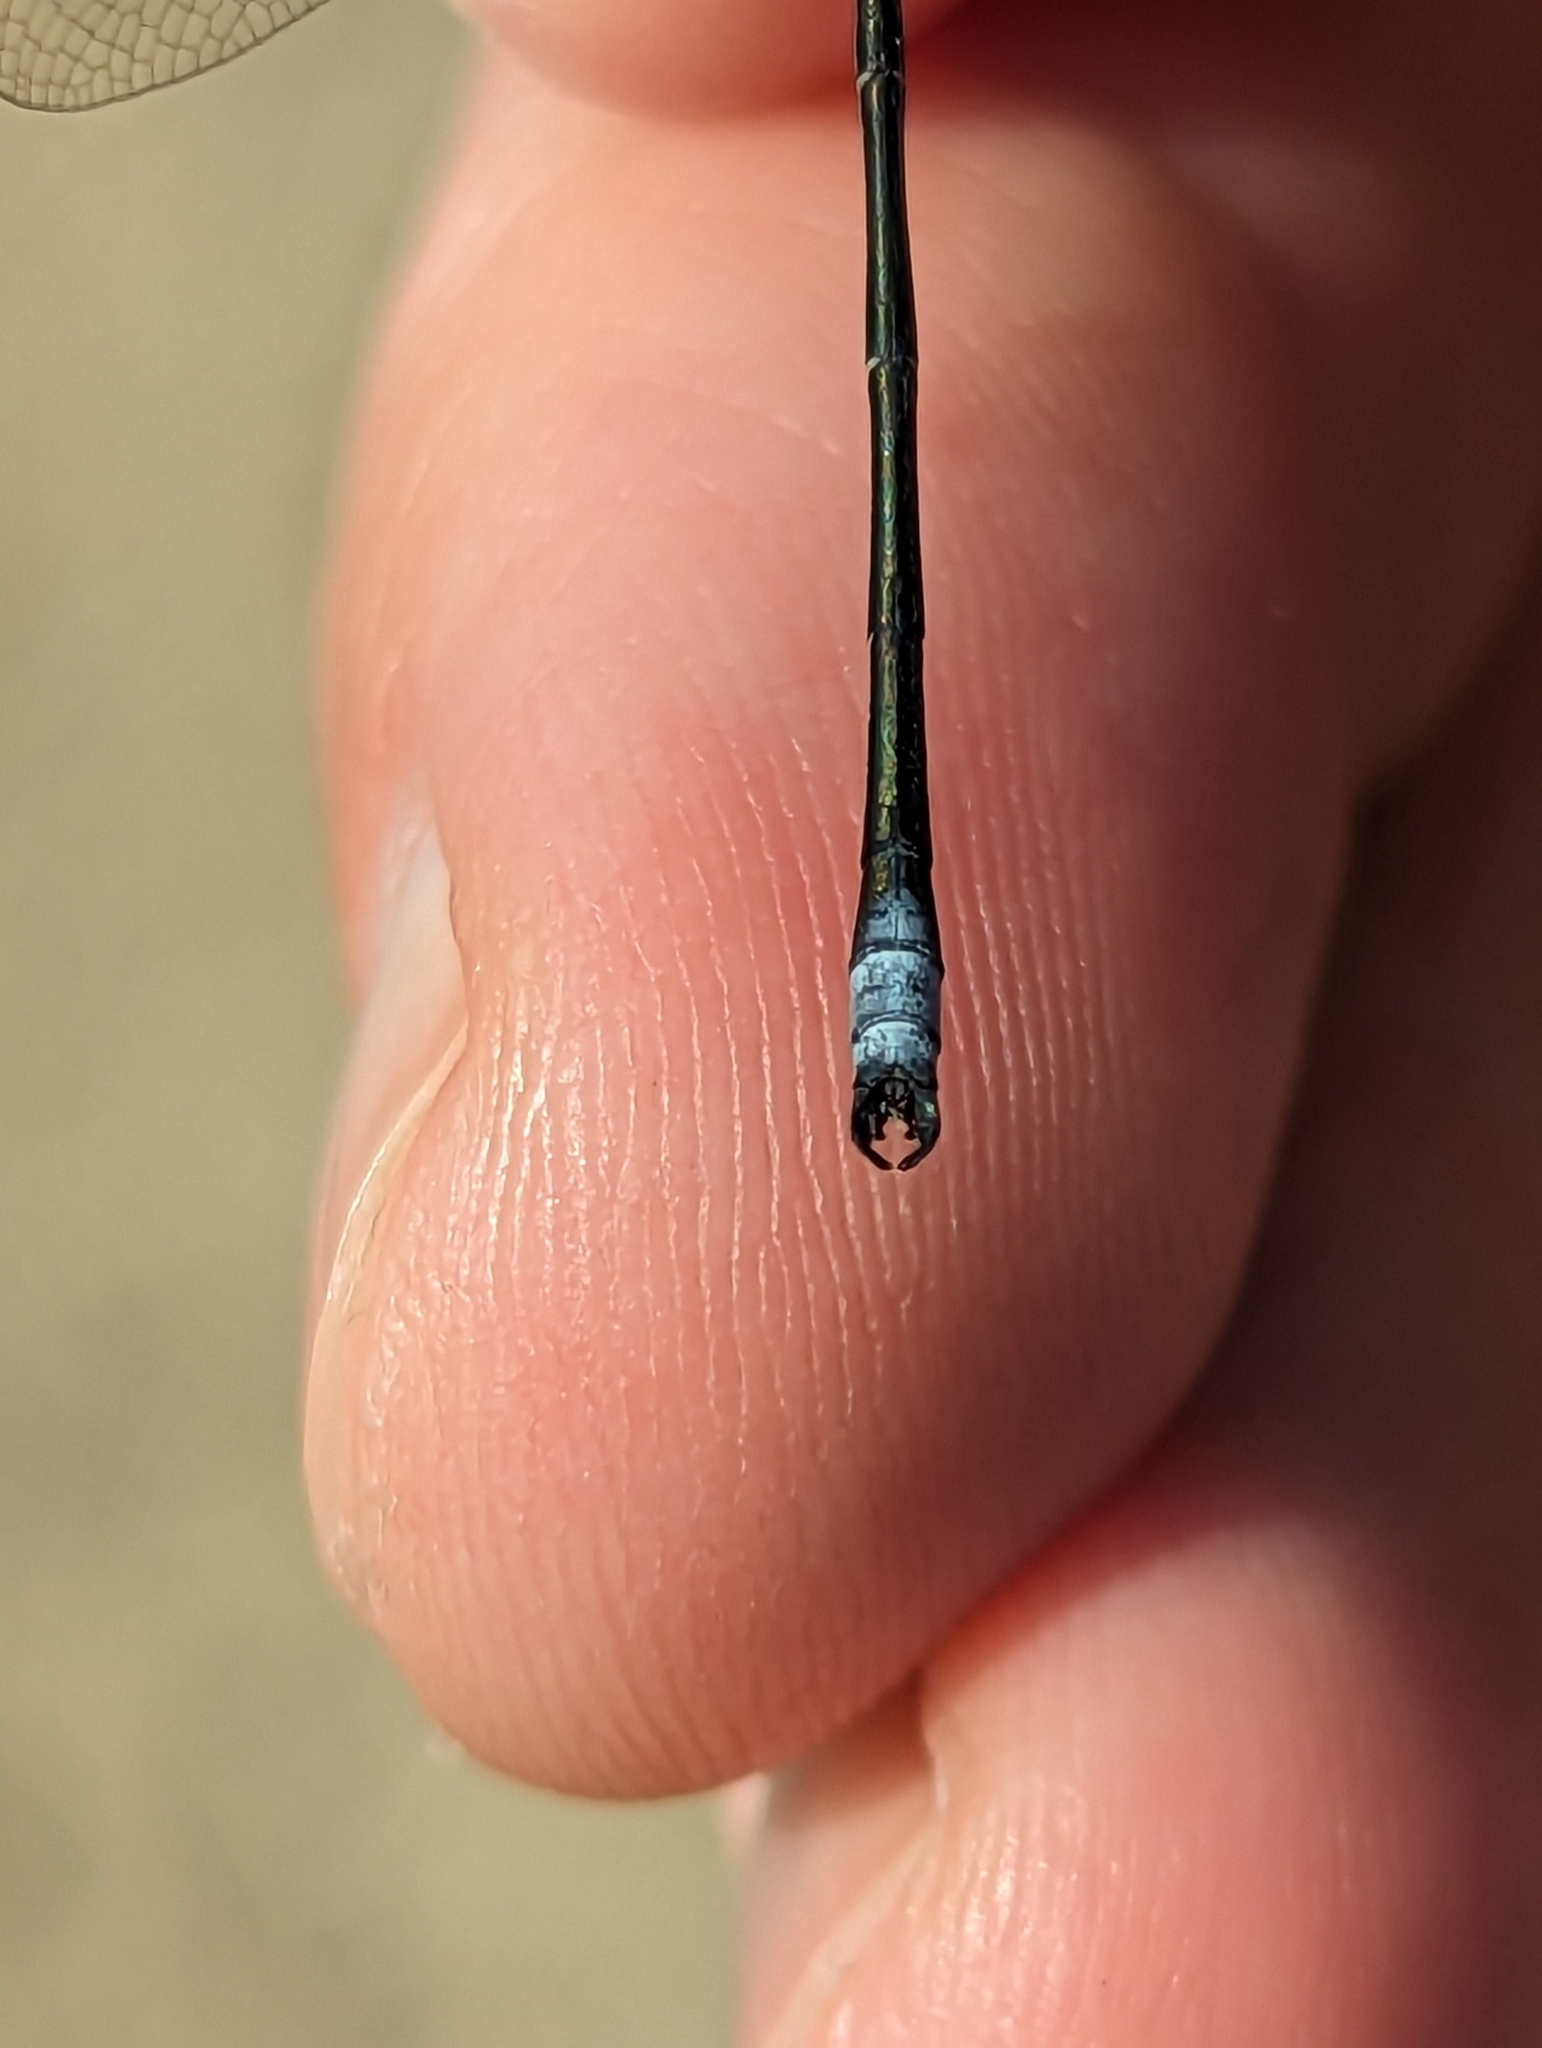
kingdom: Animalia
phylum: Arthropoda
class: Insecta
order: Odonata
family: Lestidae
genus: Lestes
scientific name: Lestes congener
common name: Spotted spreadwing
